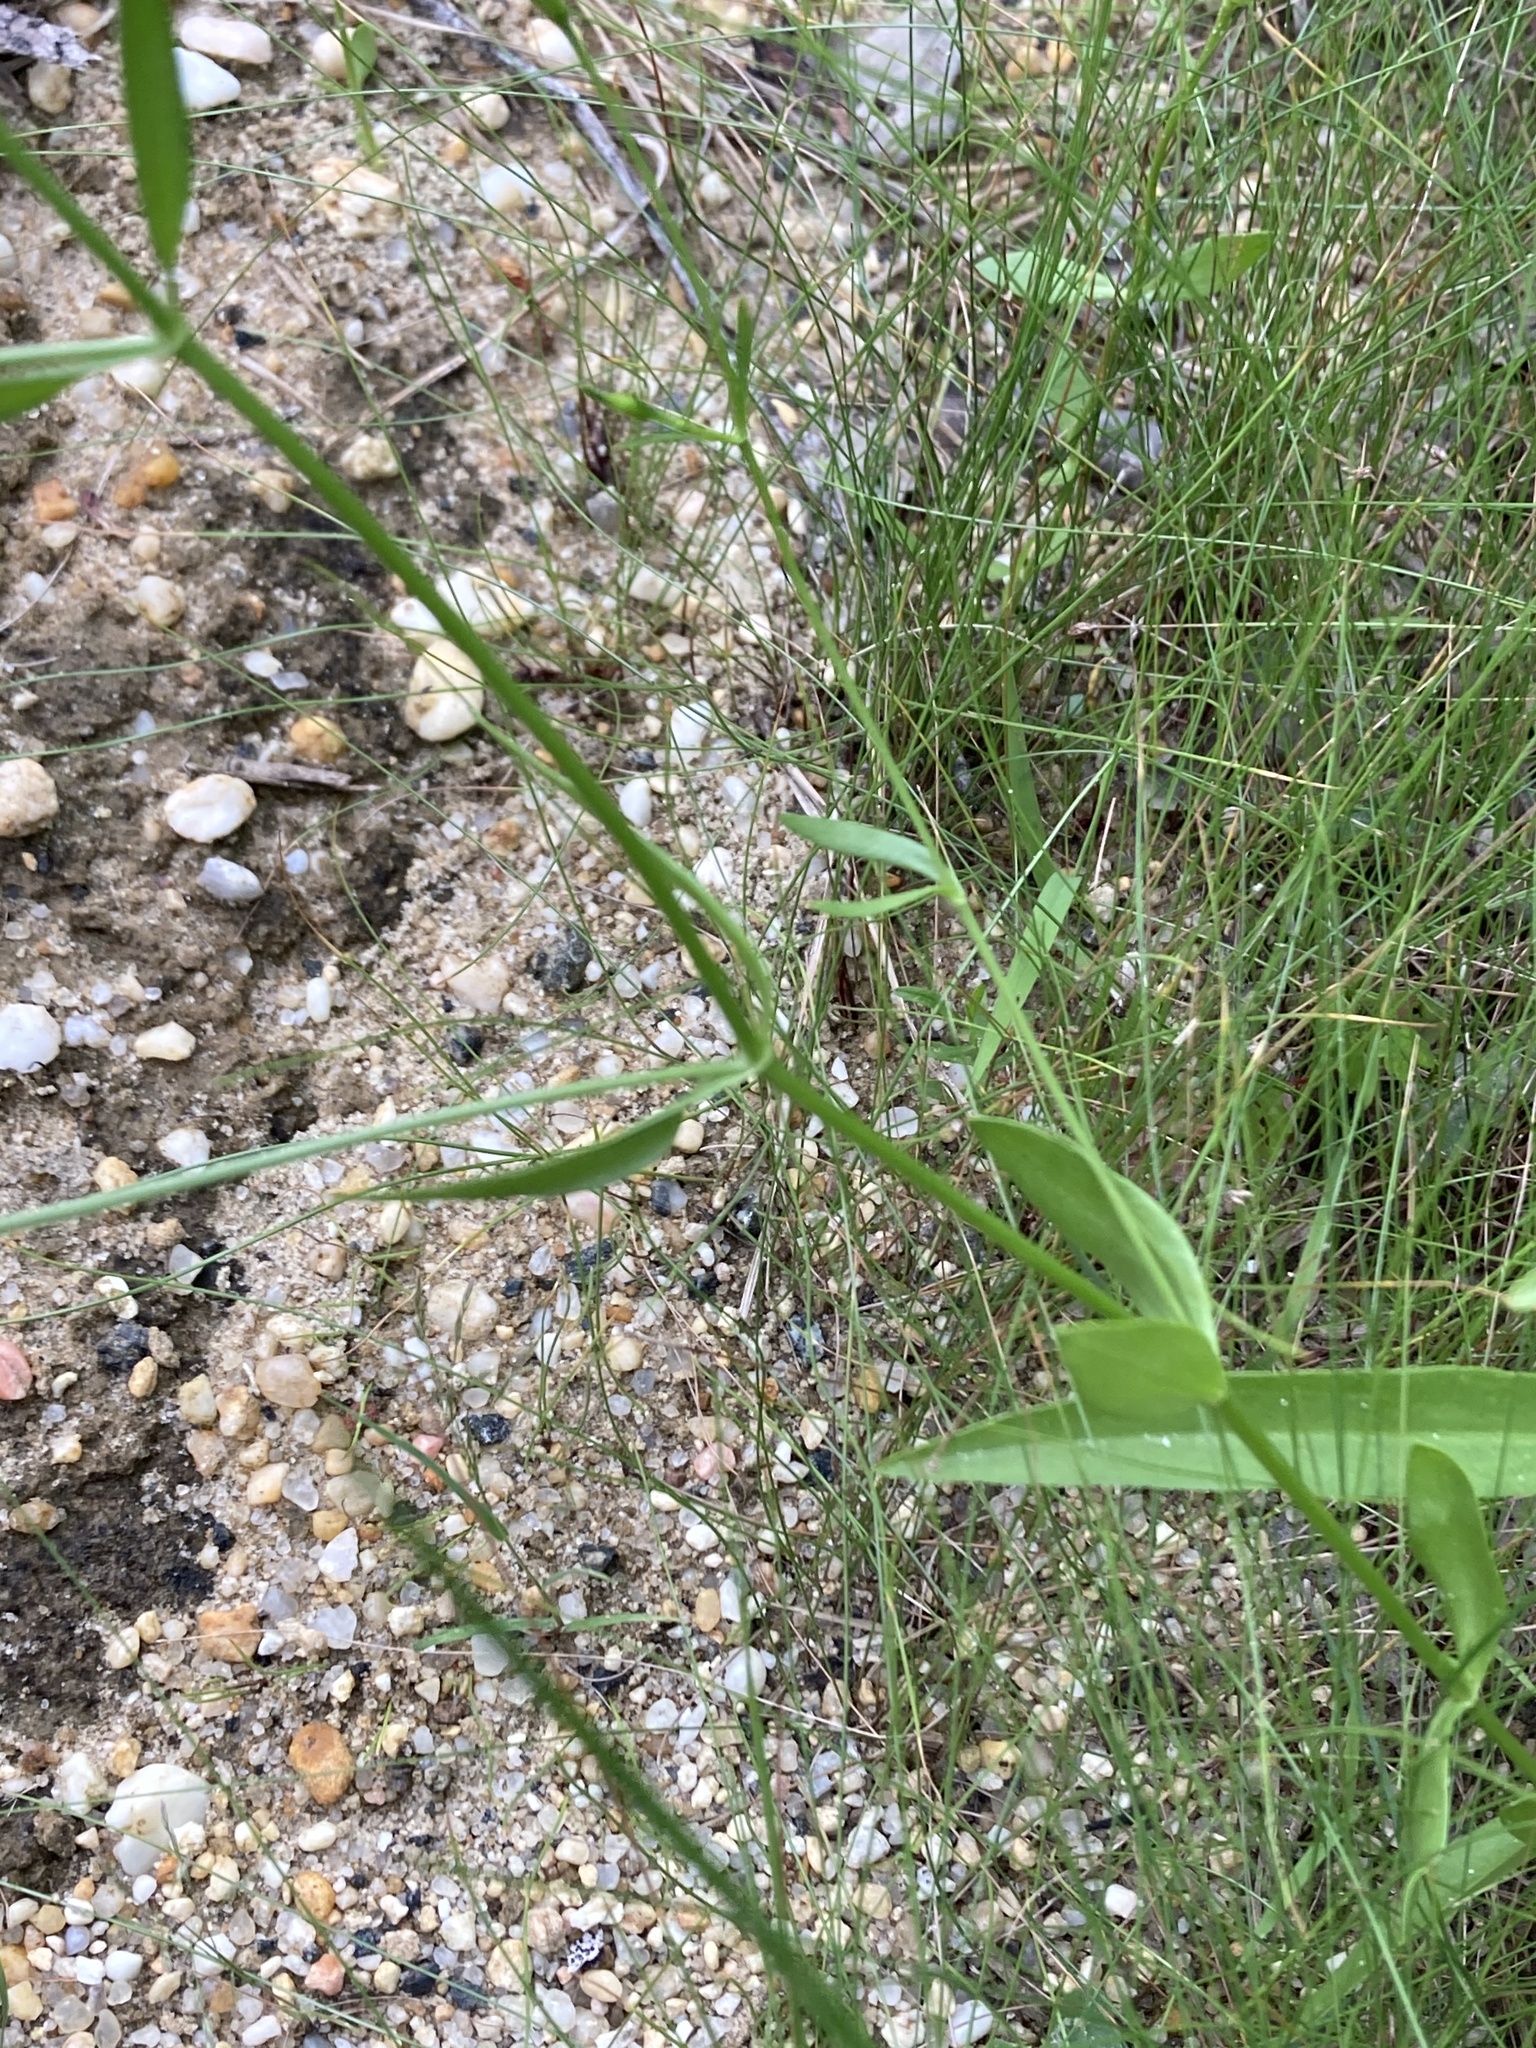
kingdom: Plantae
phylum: Tracheophyta
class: Magnoliopsida
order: Gentianales
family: Gentianaceae
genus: Sabatia
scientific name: Sabatia stellaris
